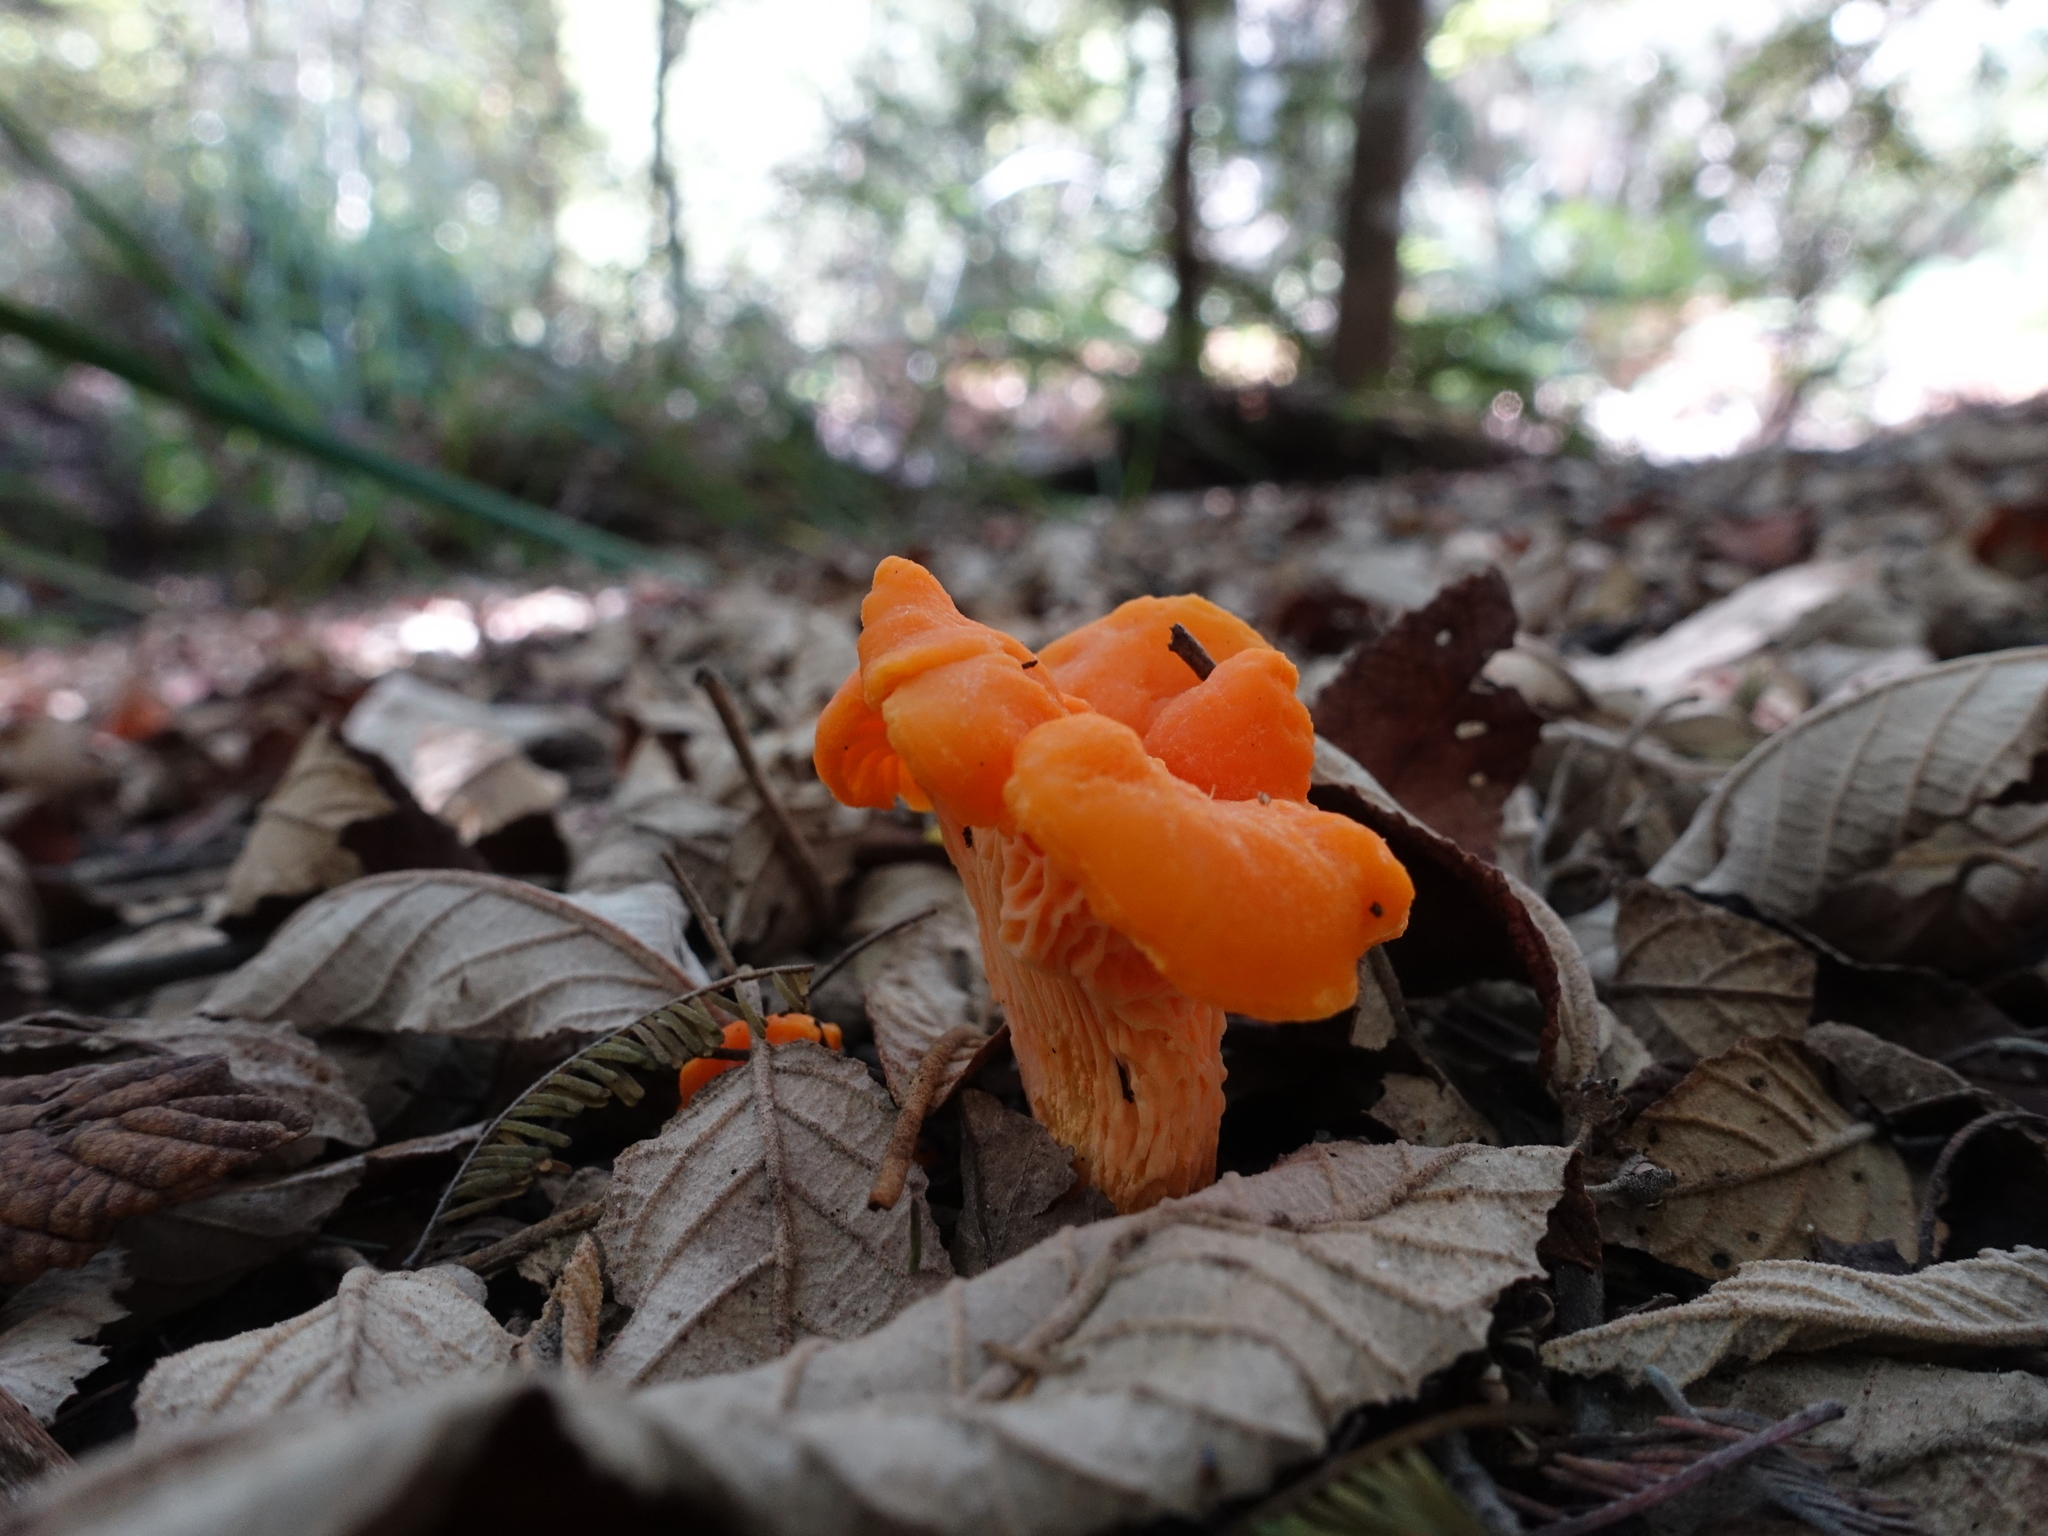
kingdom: Fungi
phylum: Basidiomycota
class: Agaricomycetes
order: Cantharellales
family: Hydnaceae
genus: Cantharellus
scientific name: Cantharellus
